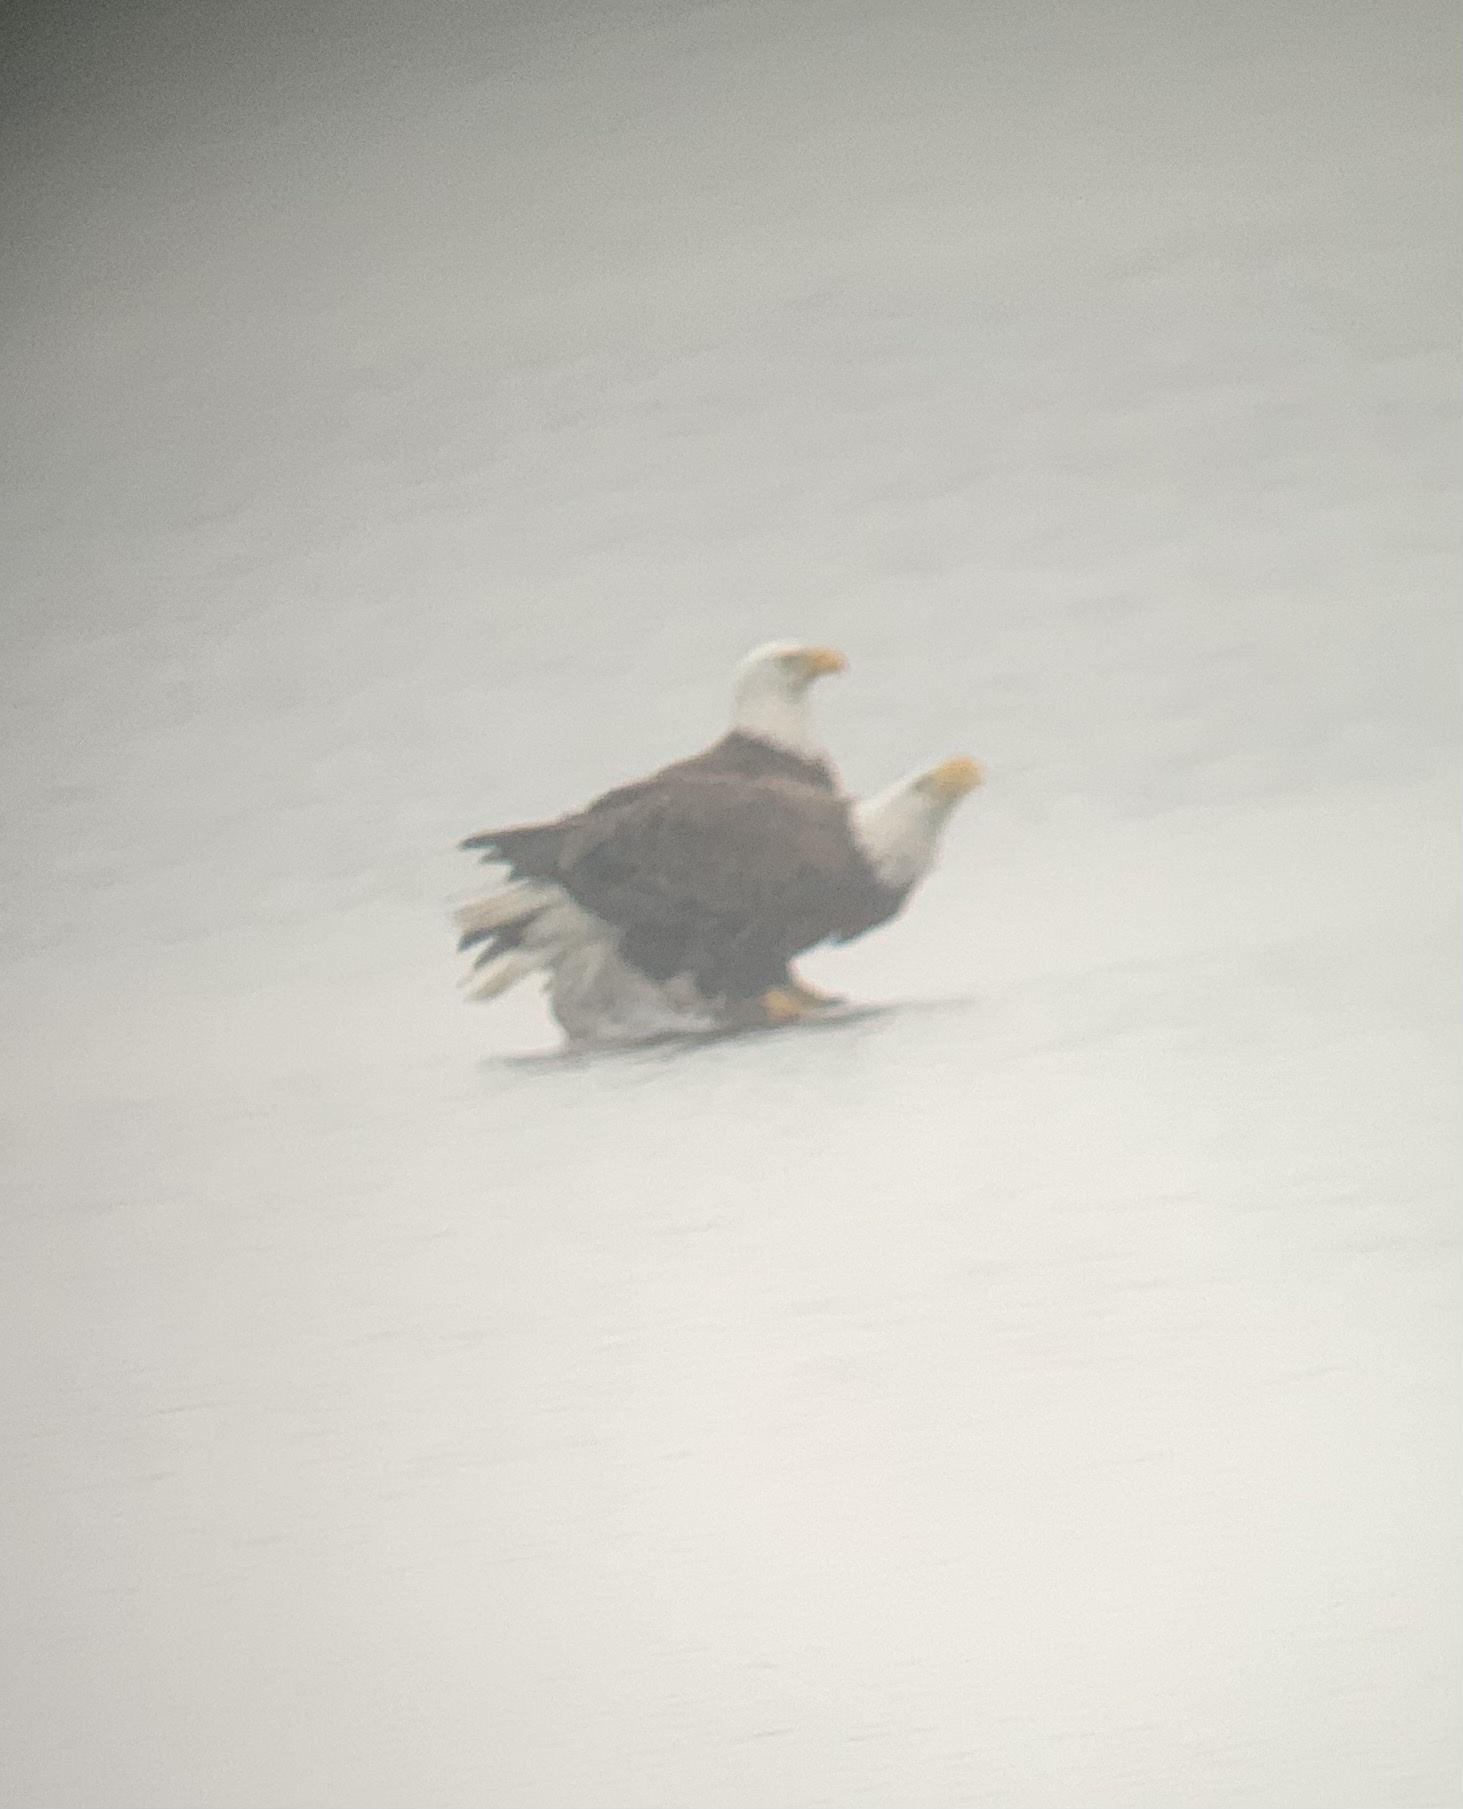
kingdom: Animalia
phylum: Chordata
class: Aves
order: Accipitriformes
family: Accipitridae
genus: Haliaeetus
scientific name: Haliaeetus leucocephalus
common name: Bald eagle
